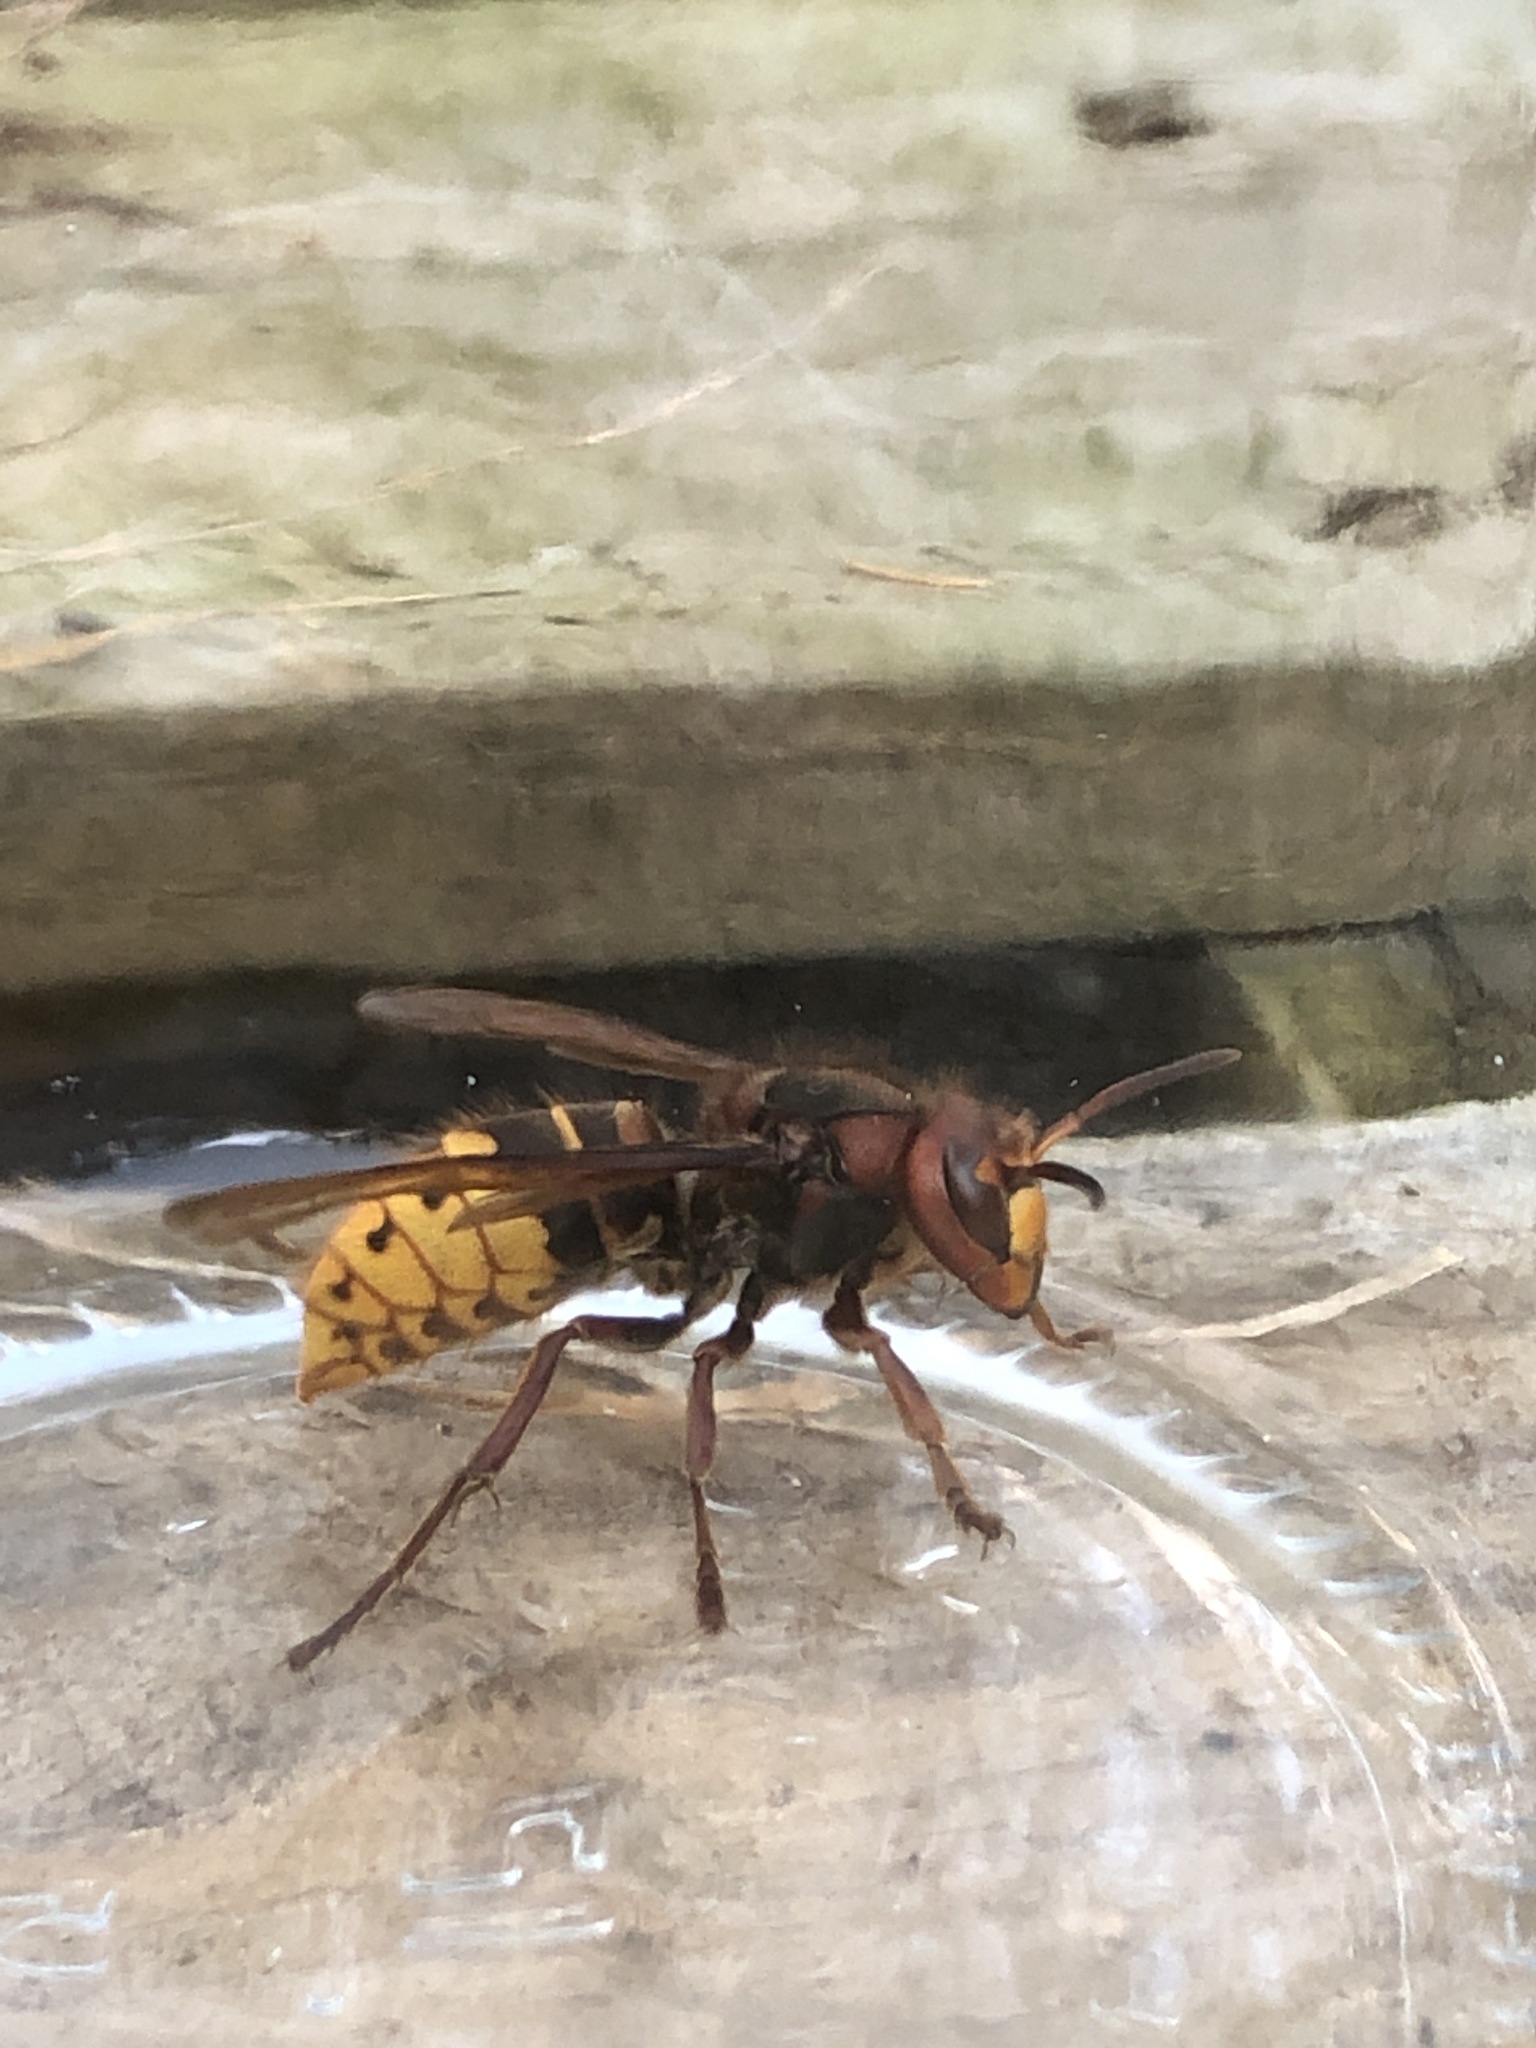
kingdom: Animalia
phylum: Arthropoda
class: Insecta
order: Hymenoptera
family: Vespidae
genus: Vespa
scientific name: Vespa crabro
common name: Hornet
